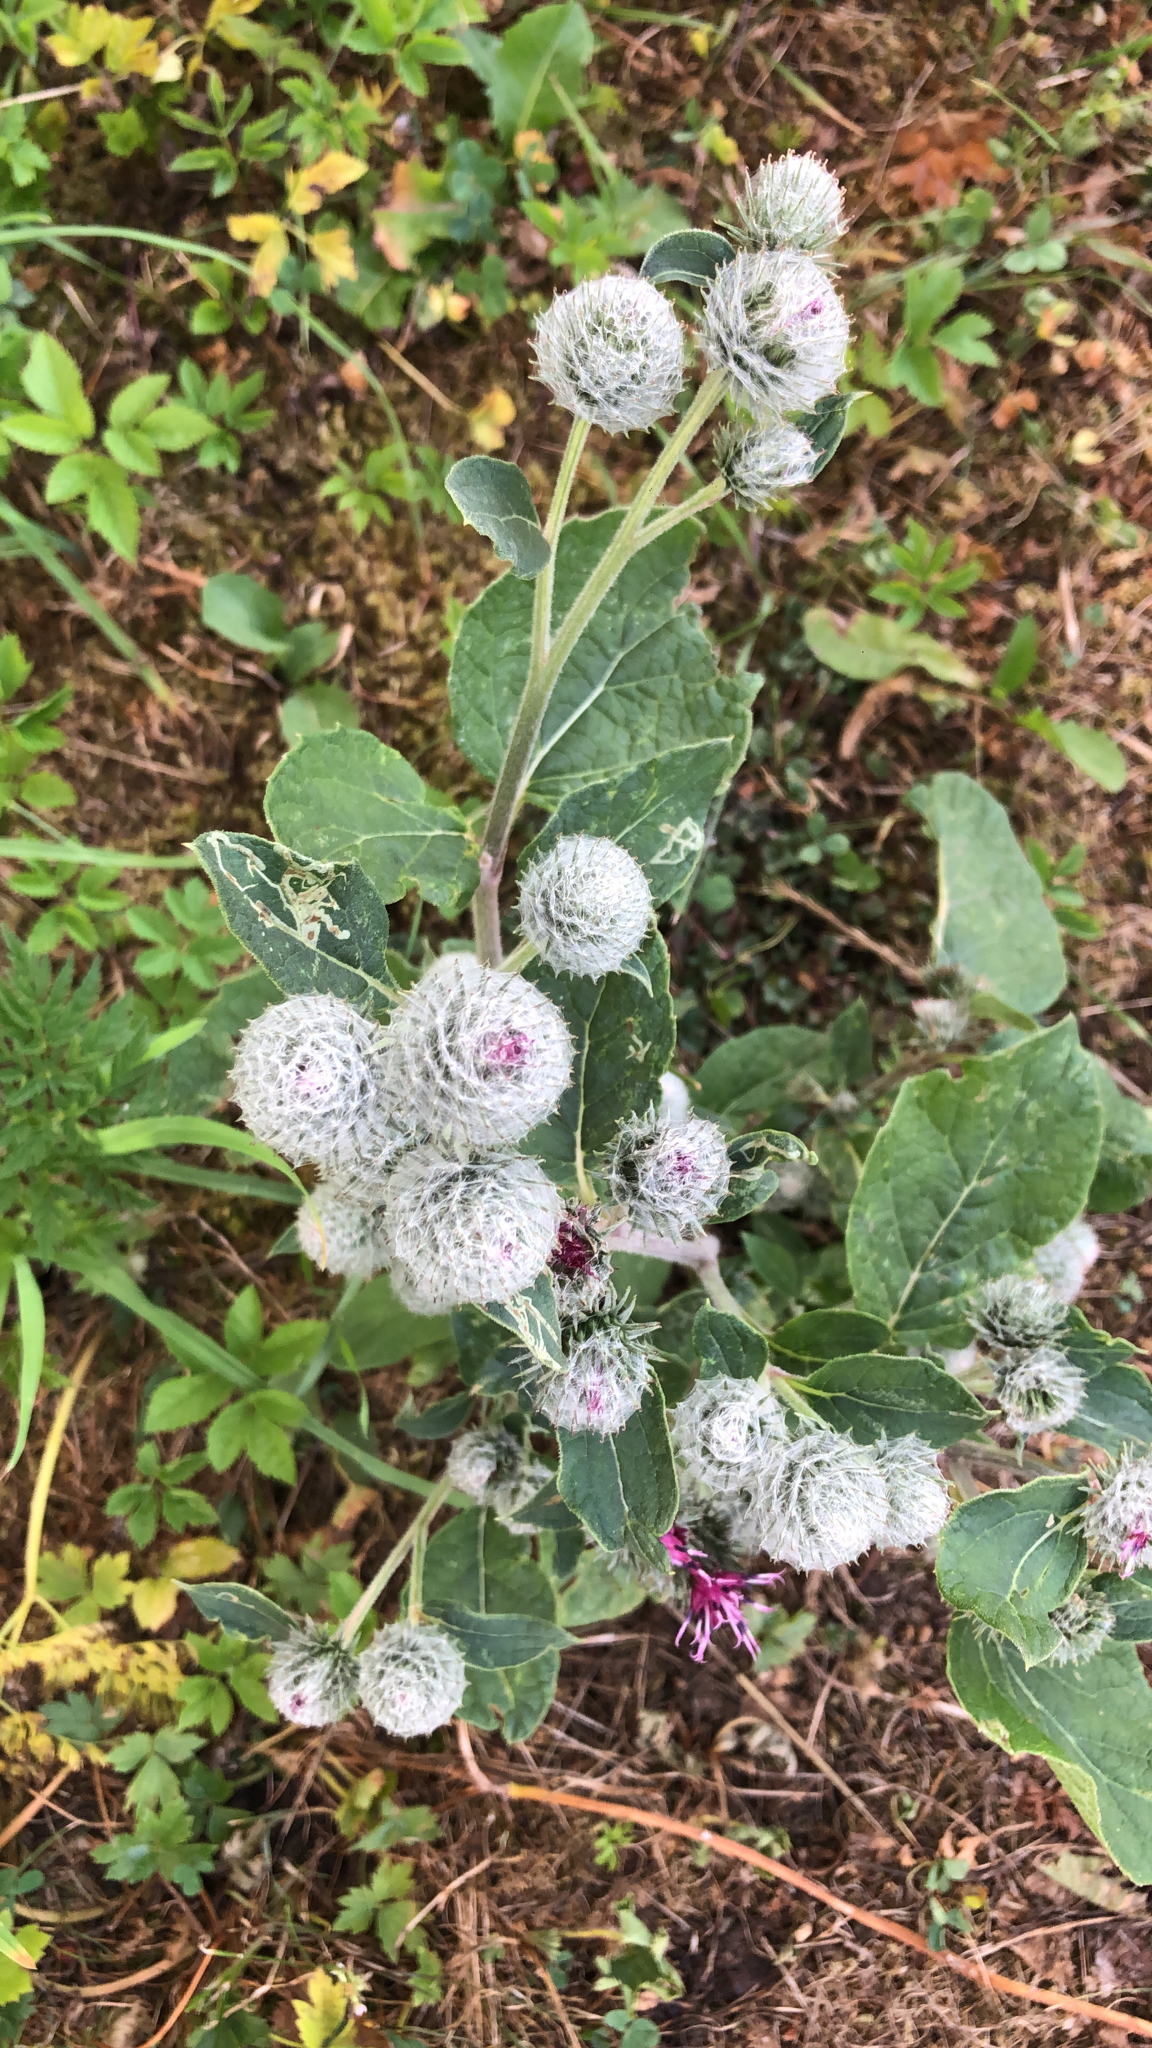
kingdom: Plantae
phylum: Tracheophyta
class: Magnoliopsida
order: Asterales
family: Asteraceae
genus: Arctium
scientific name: Arctium tomentosum
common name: Woolly burdock
